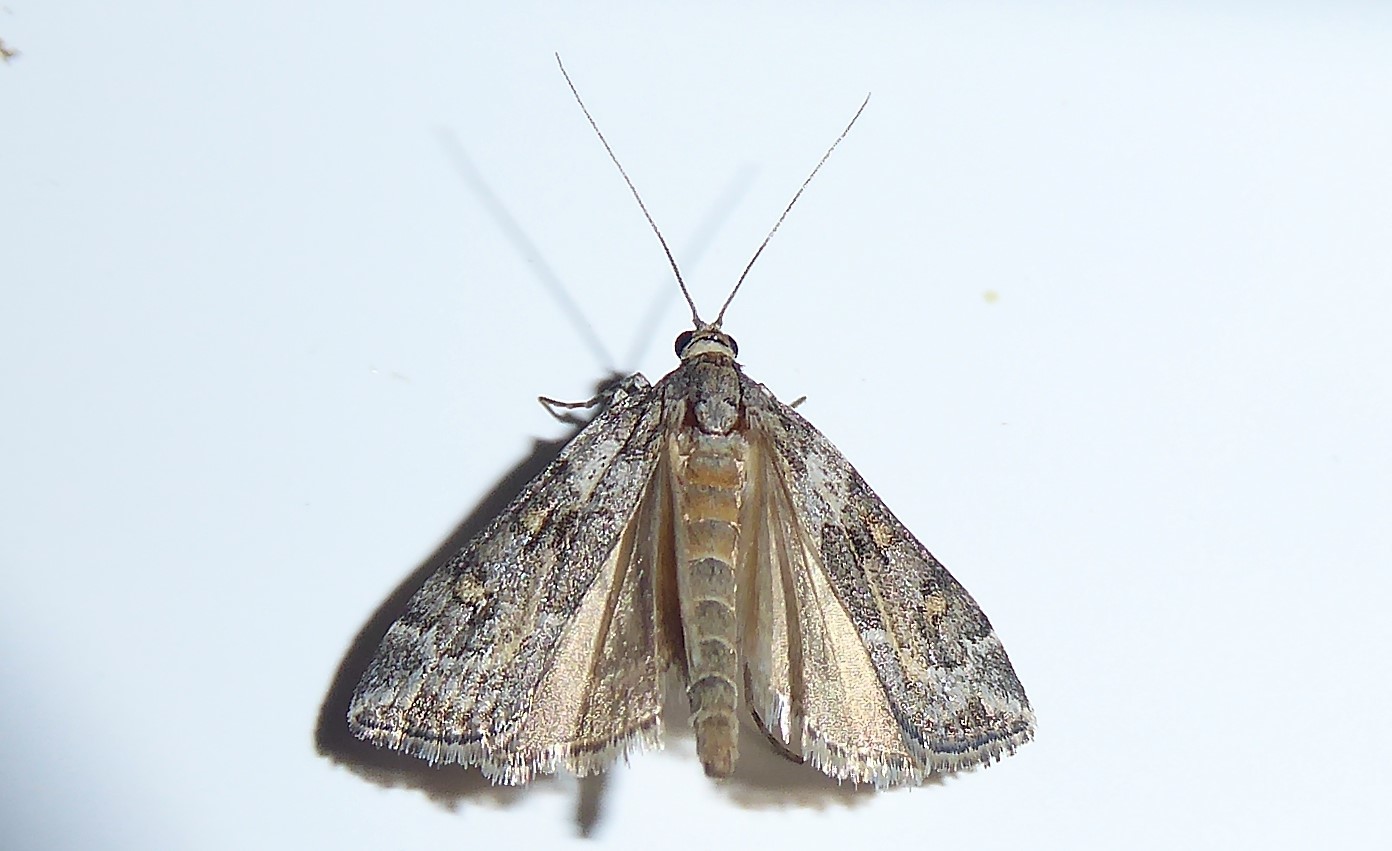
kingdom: Animalia
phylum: Arthropoda
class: Insecta
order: Lepidoptera
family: Crambidae
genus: Eudonia
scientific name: Eudonia diphtheralis
